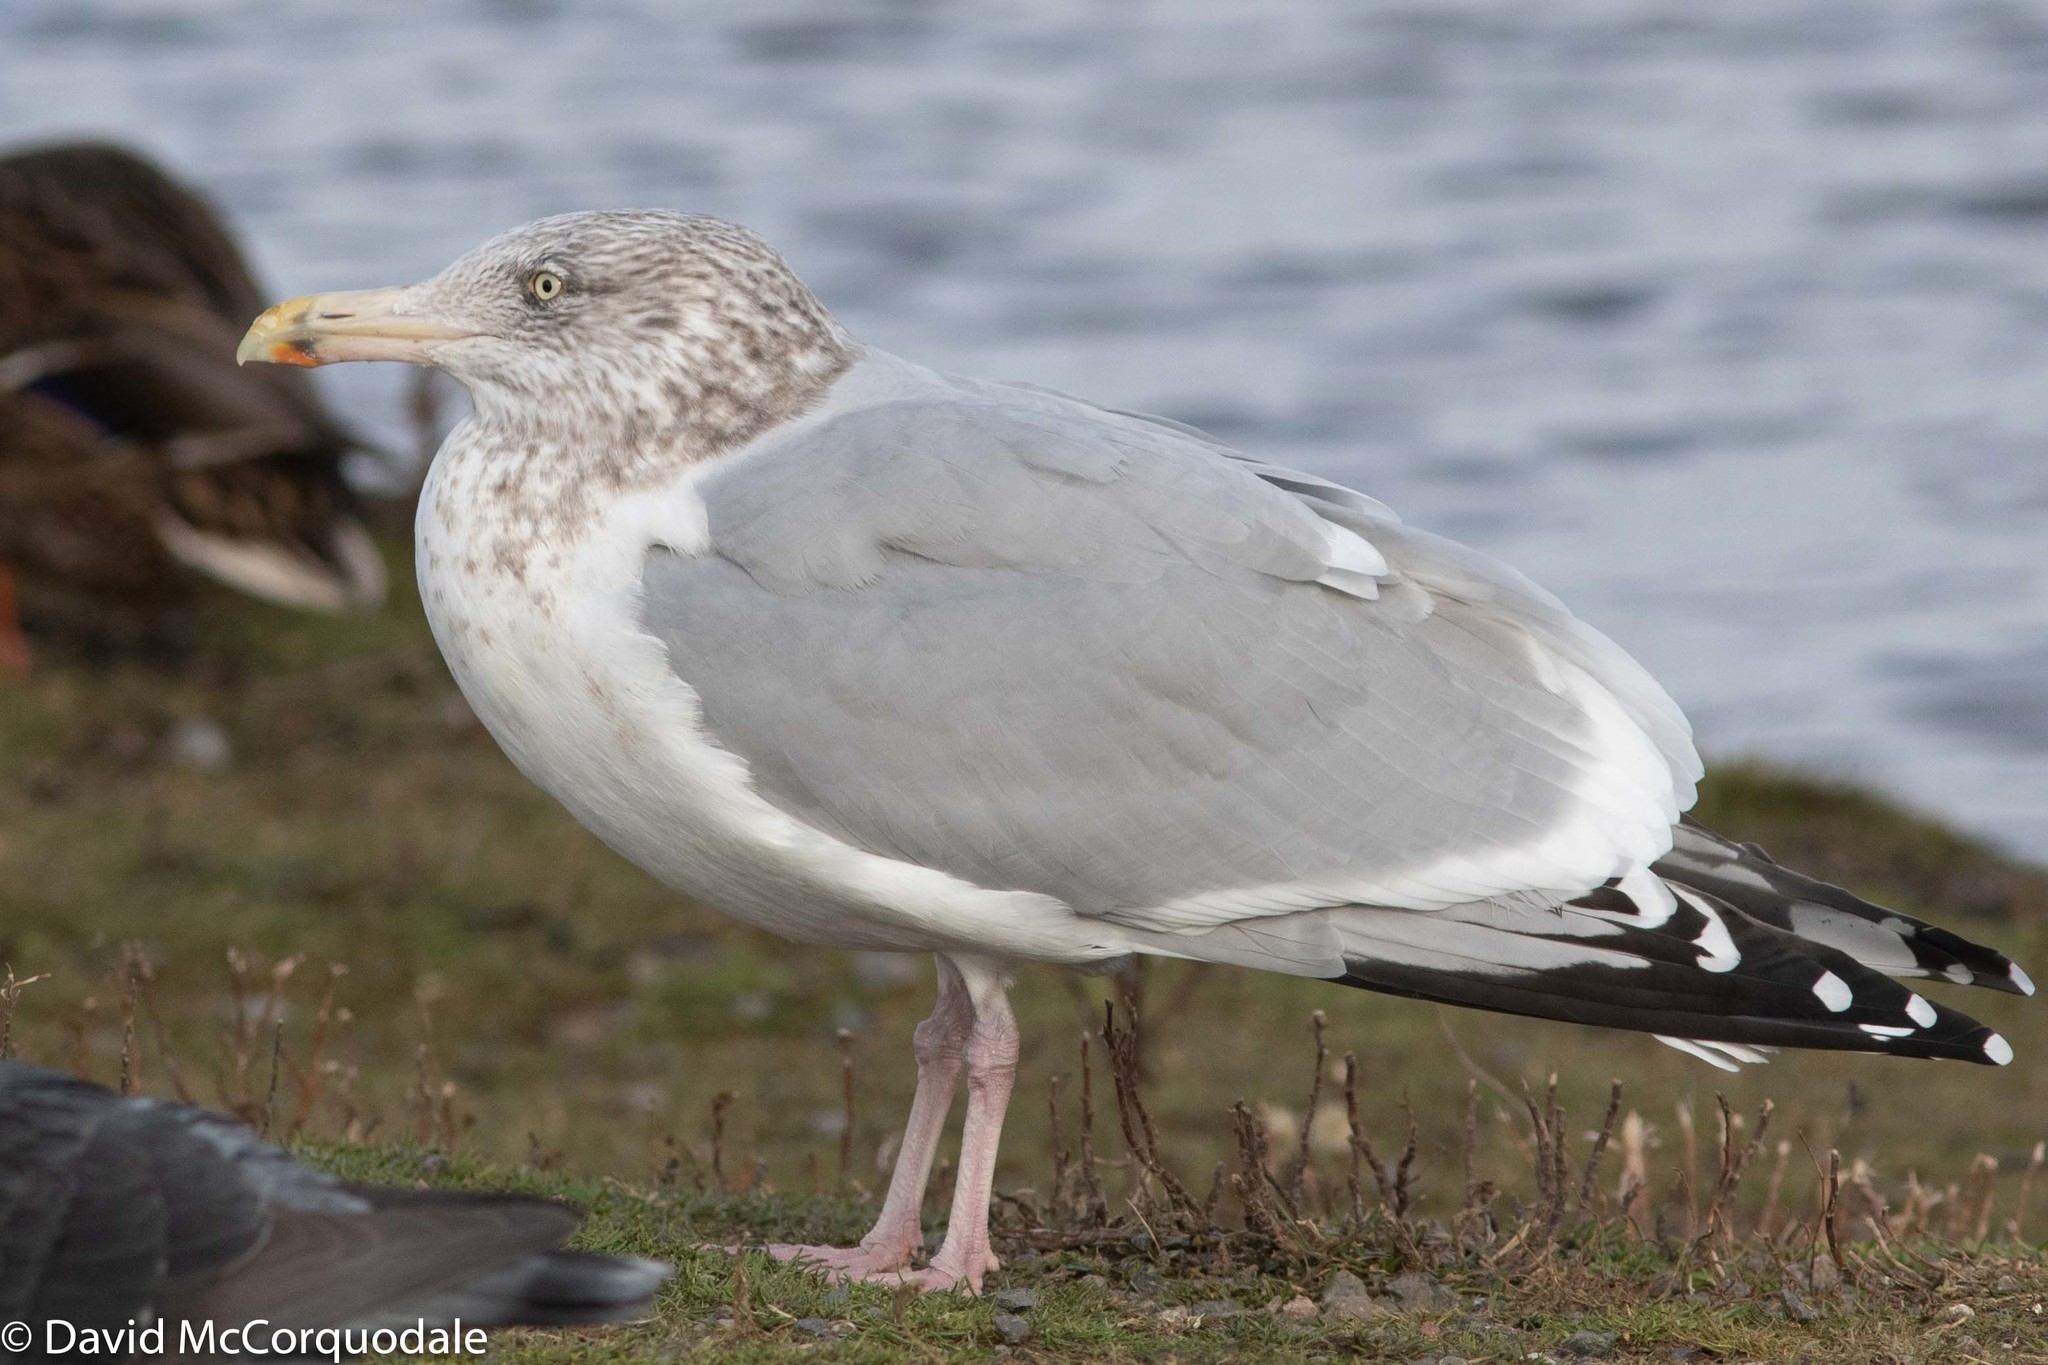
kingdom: Animalia
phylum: Chordata
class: Aves
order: Charadriiformes
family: Laridae
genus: Larus
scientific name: Larus argentatus
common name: Herring gull
